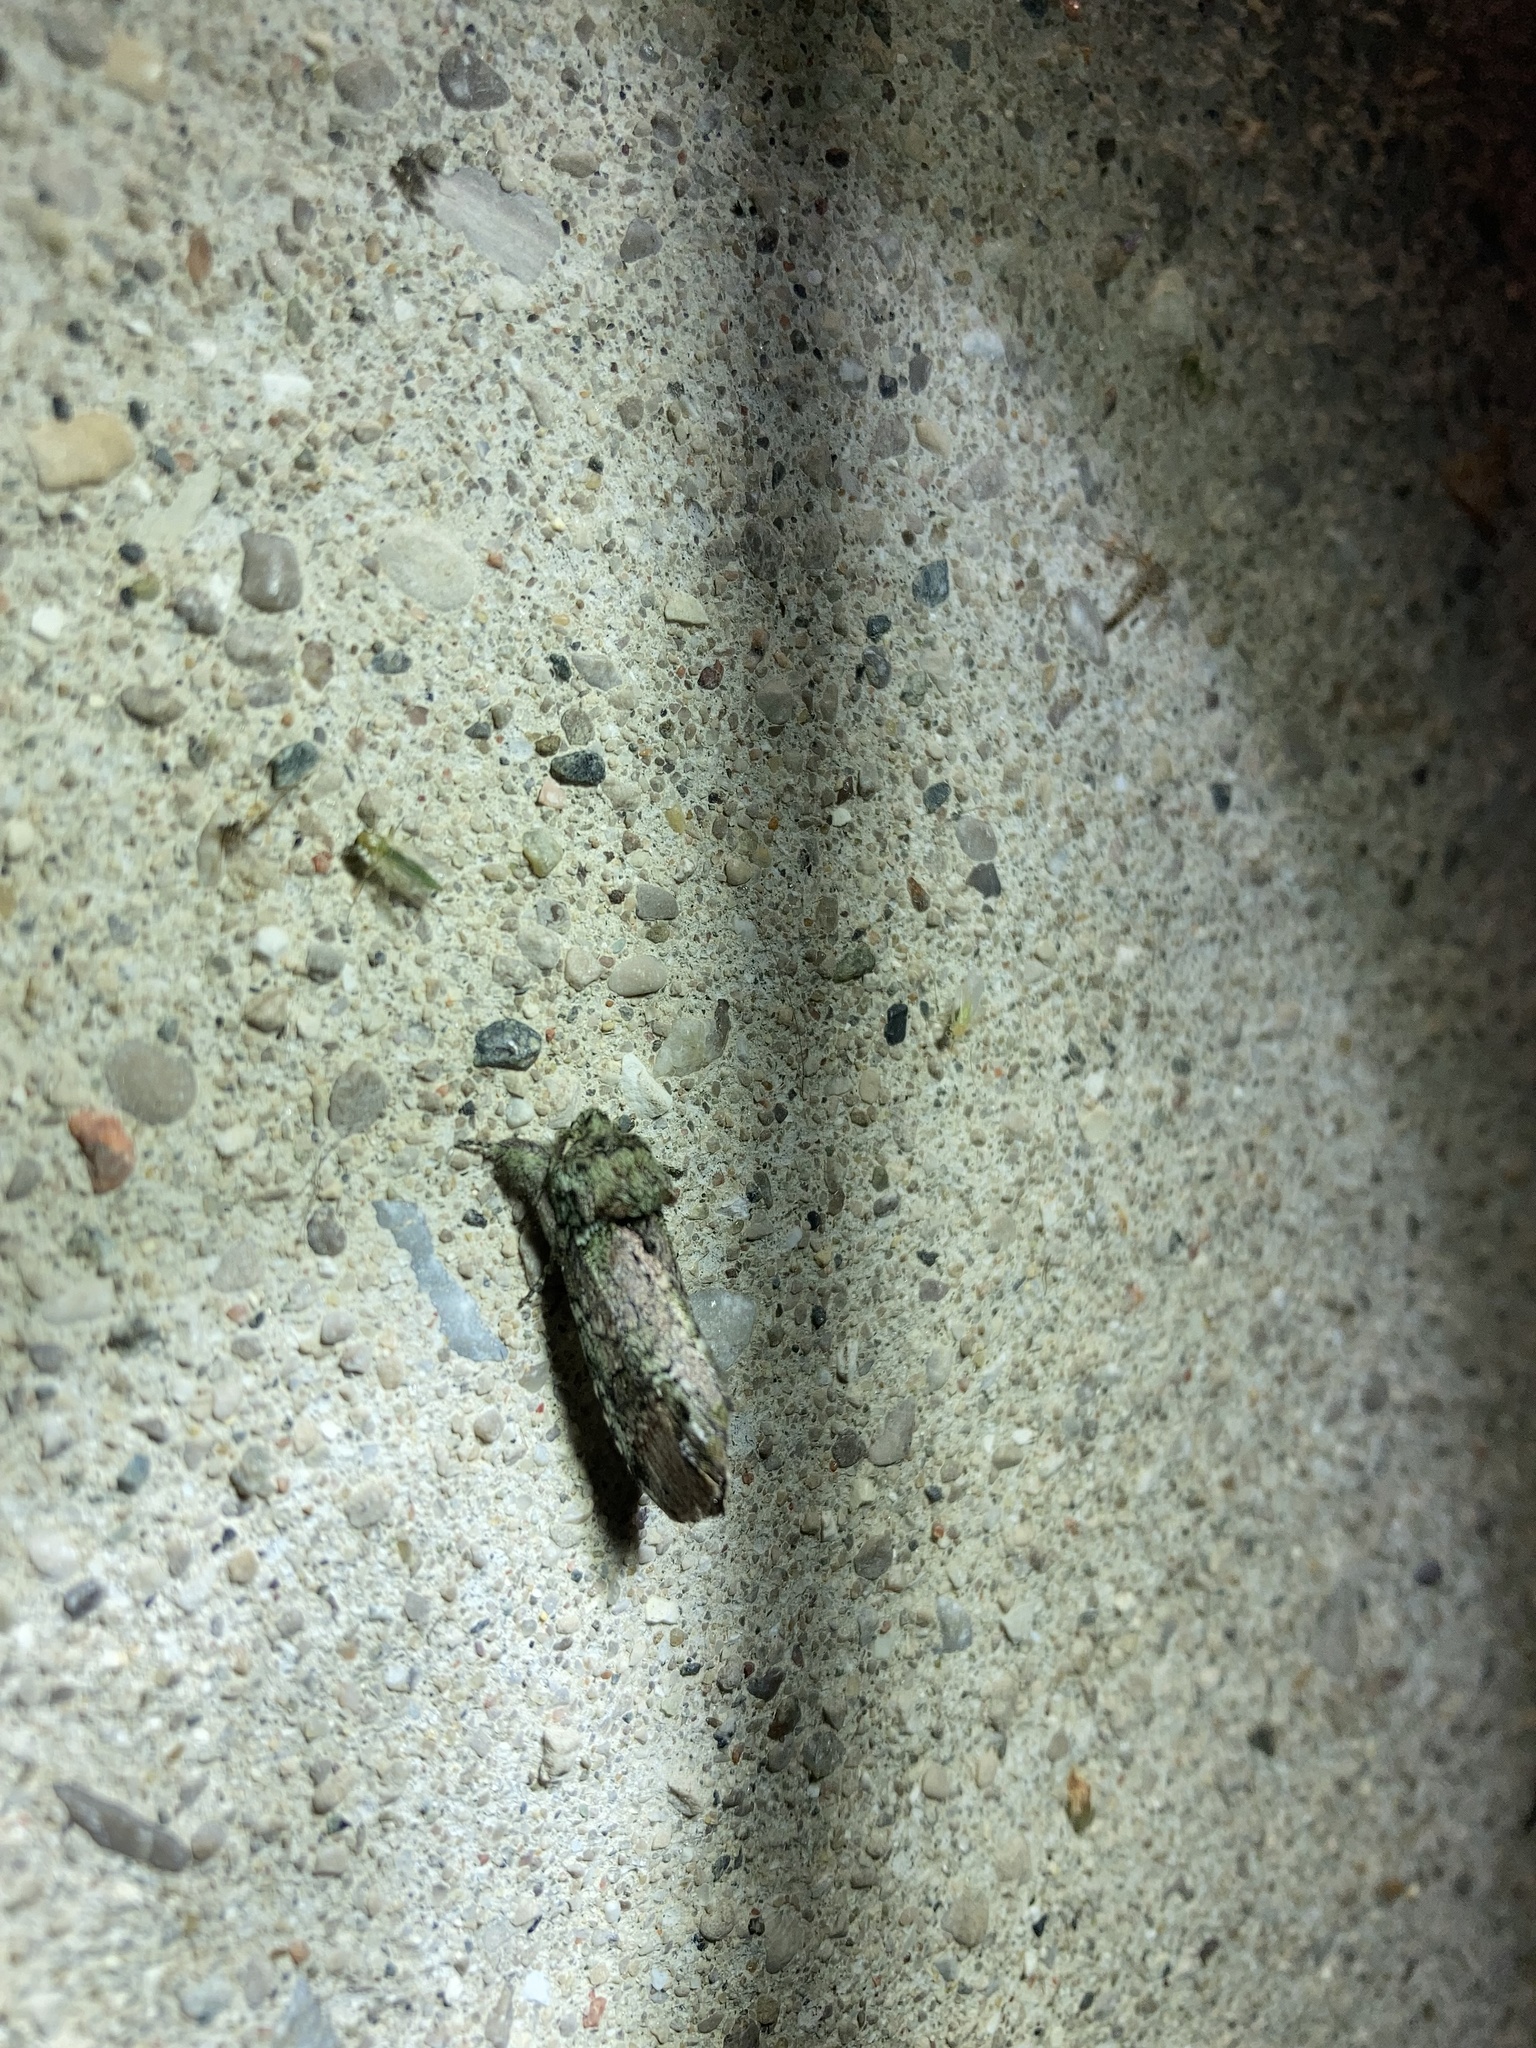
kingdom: Animalia
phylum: Arthropoda
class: Insecta
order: Lepidoptera
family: Notodontidae
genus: Schizura
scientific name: Schizura
